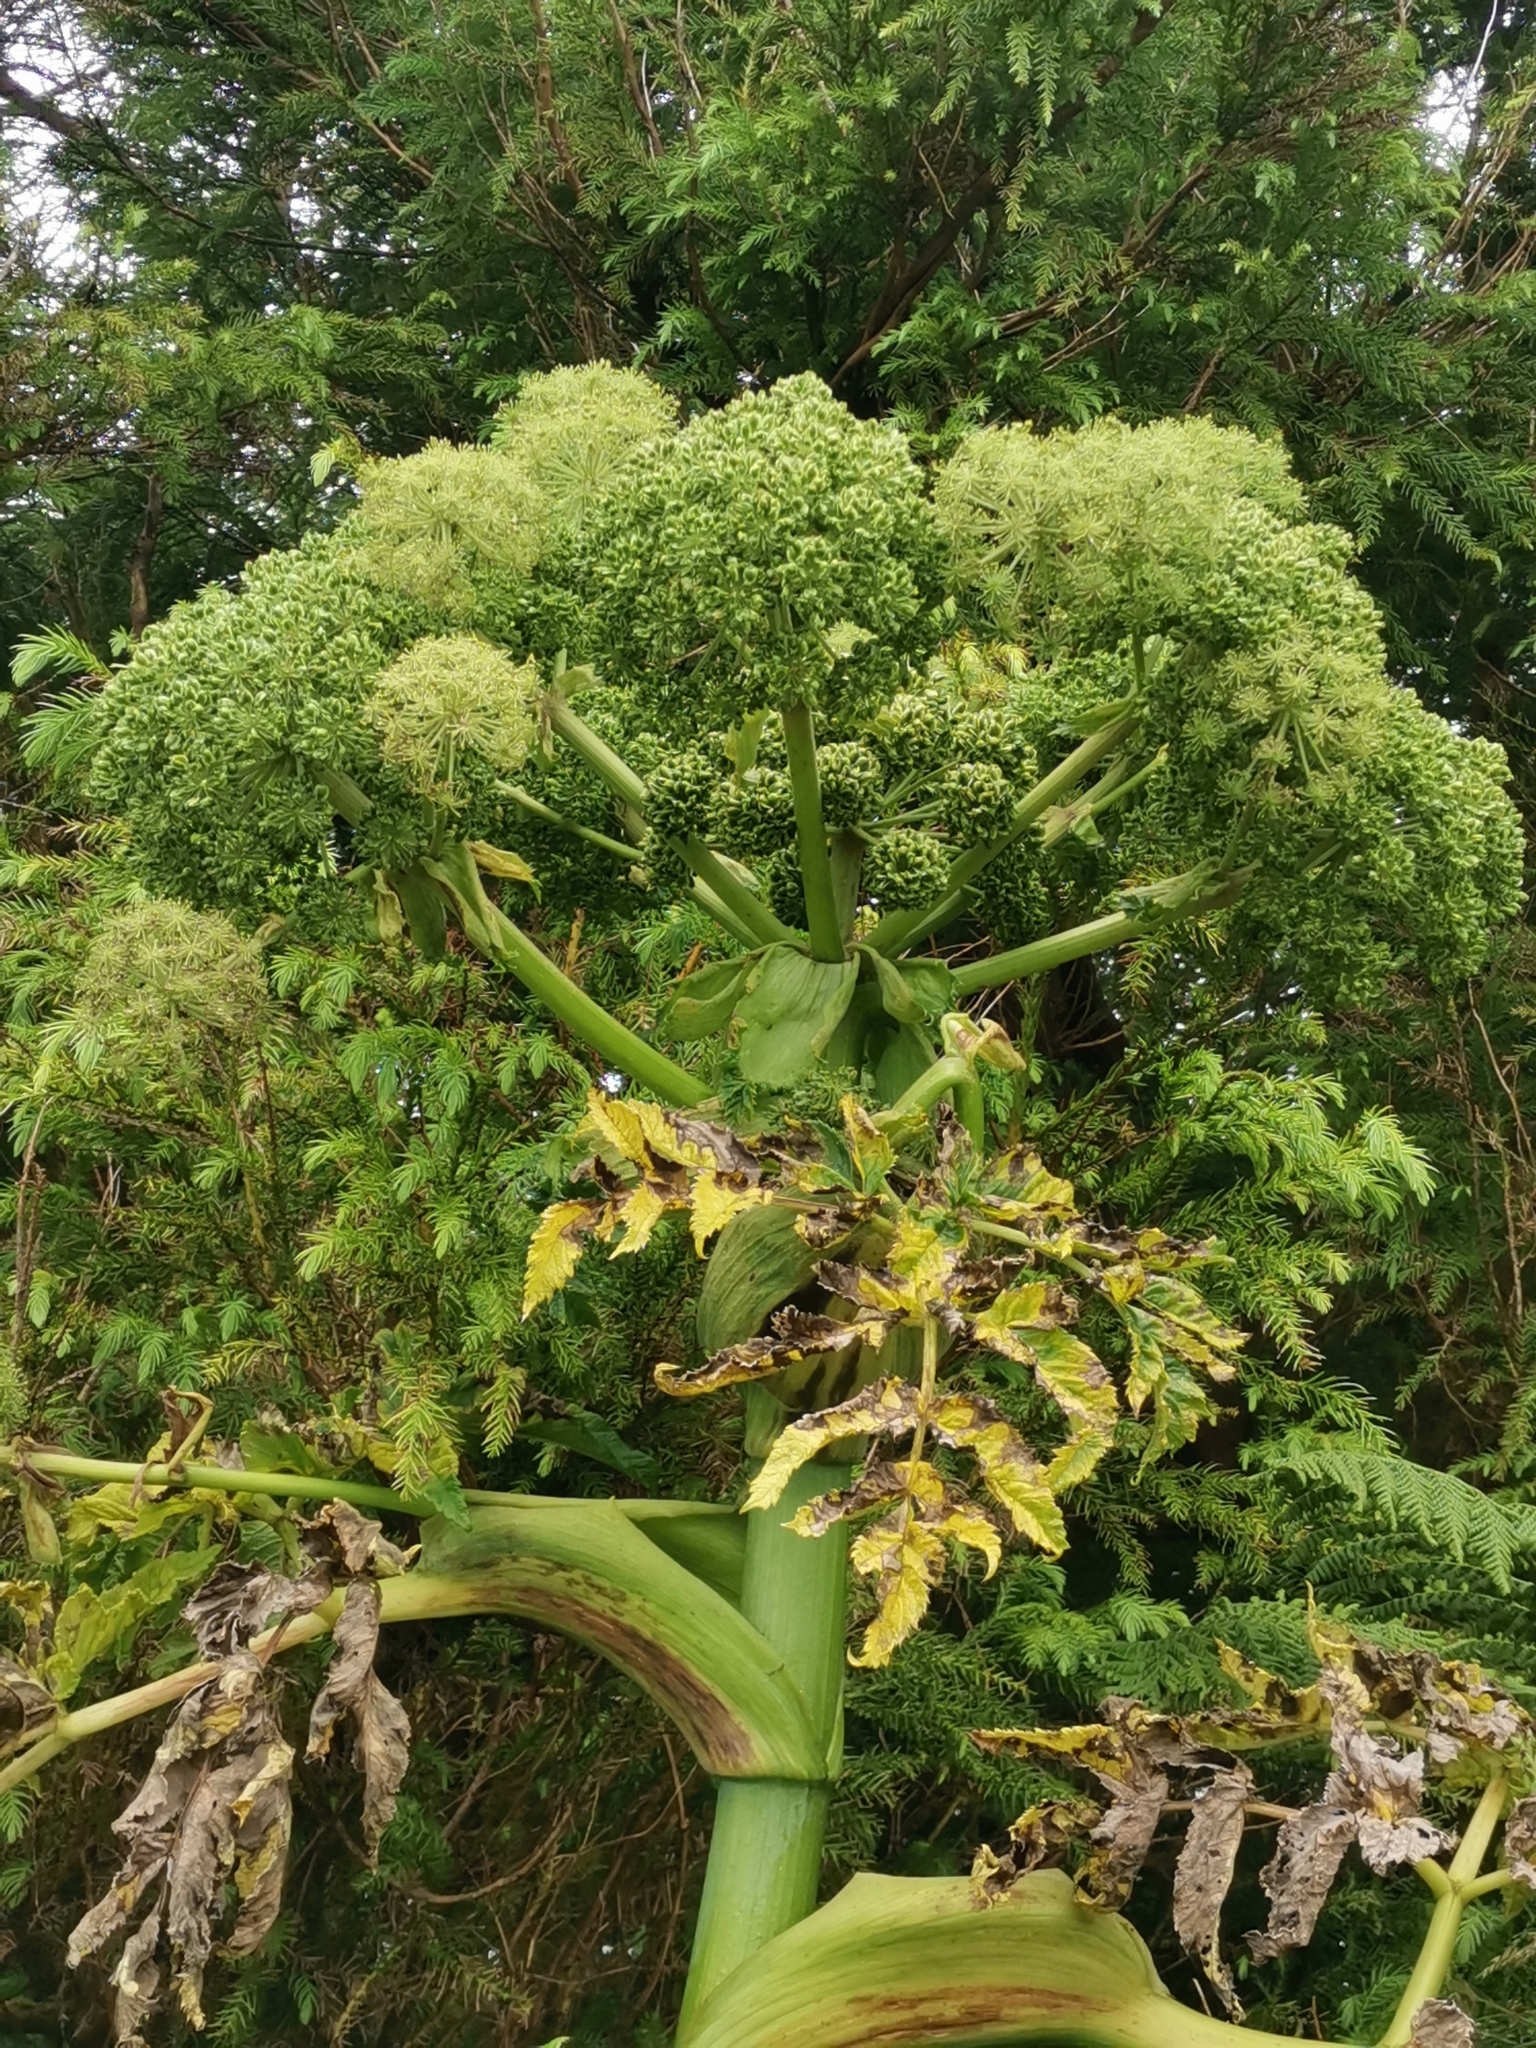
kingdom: Plantae
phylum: Tracheophyta
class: Magnoliopsida
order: Apiales
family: Apiaceae
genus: Angelica
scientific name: Angelica lignescens
